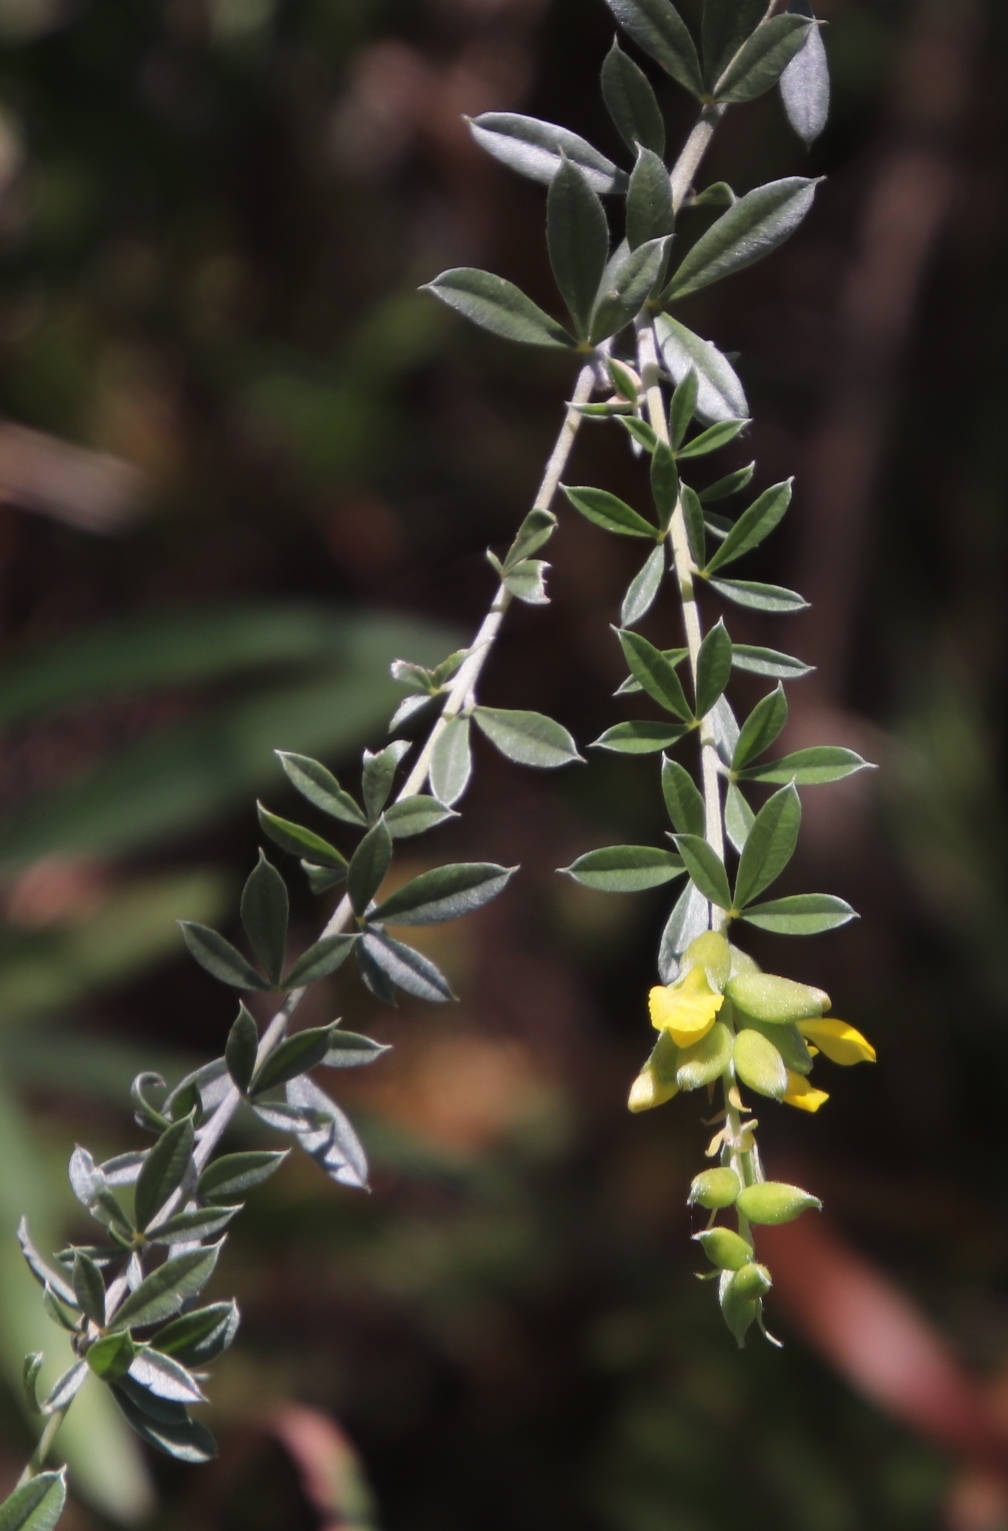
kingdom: Plantae
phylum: Tracheophyta
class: Magnoliopsida
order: Fabales
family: Fabaceae
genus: Pearsonia
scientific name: Pearsonia sessilifolia
